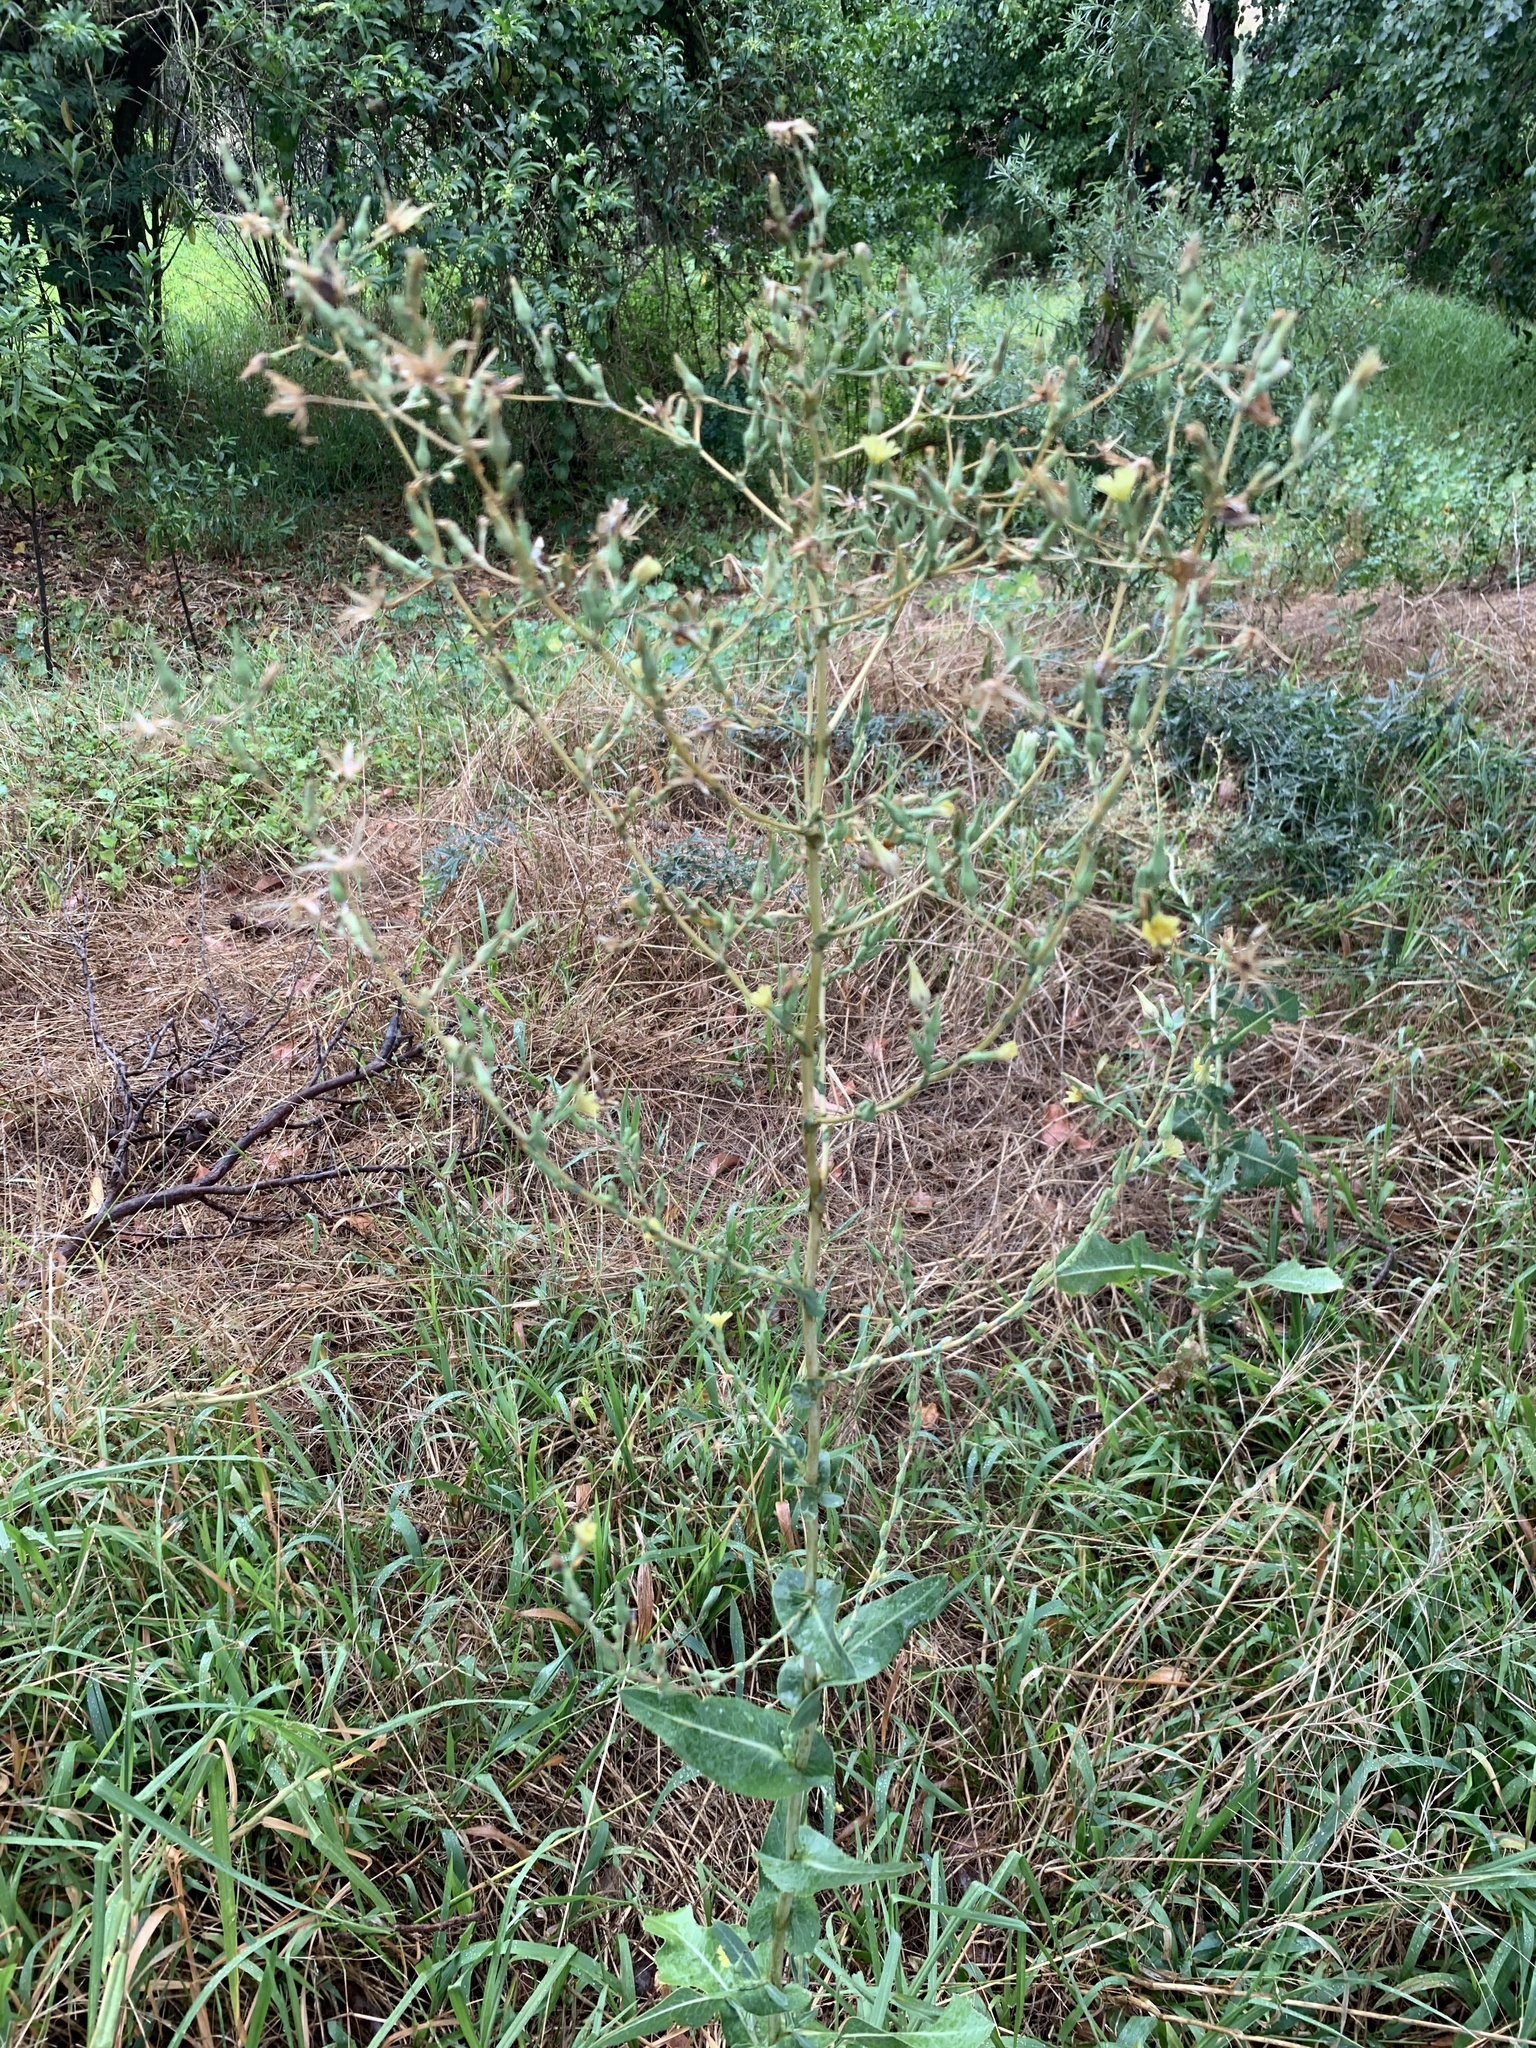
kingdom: Plantae
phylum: Tracheophyta
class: Magnoliopsida
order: Asterales
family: Asteraceae
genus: Lactuca
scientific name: Lactuca serriola
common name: Prickly lettuce
